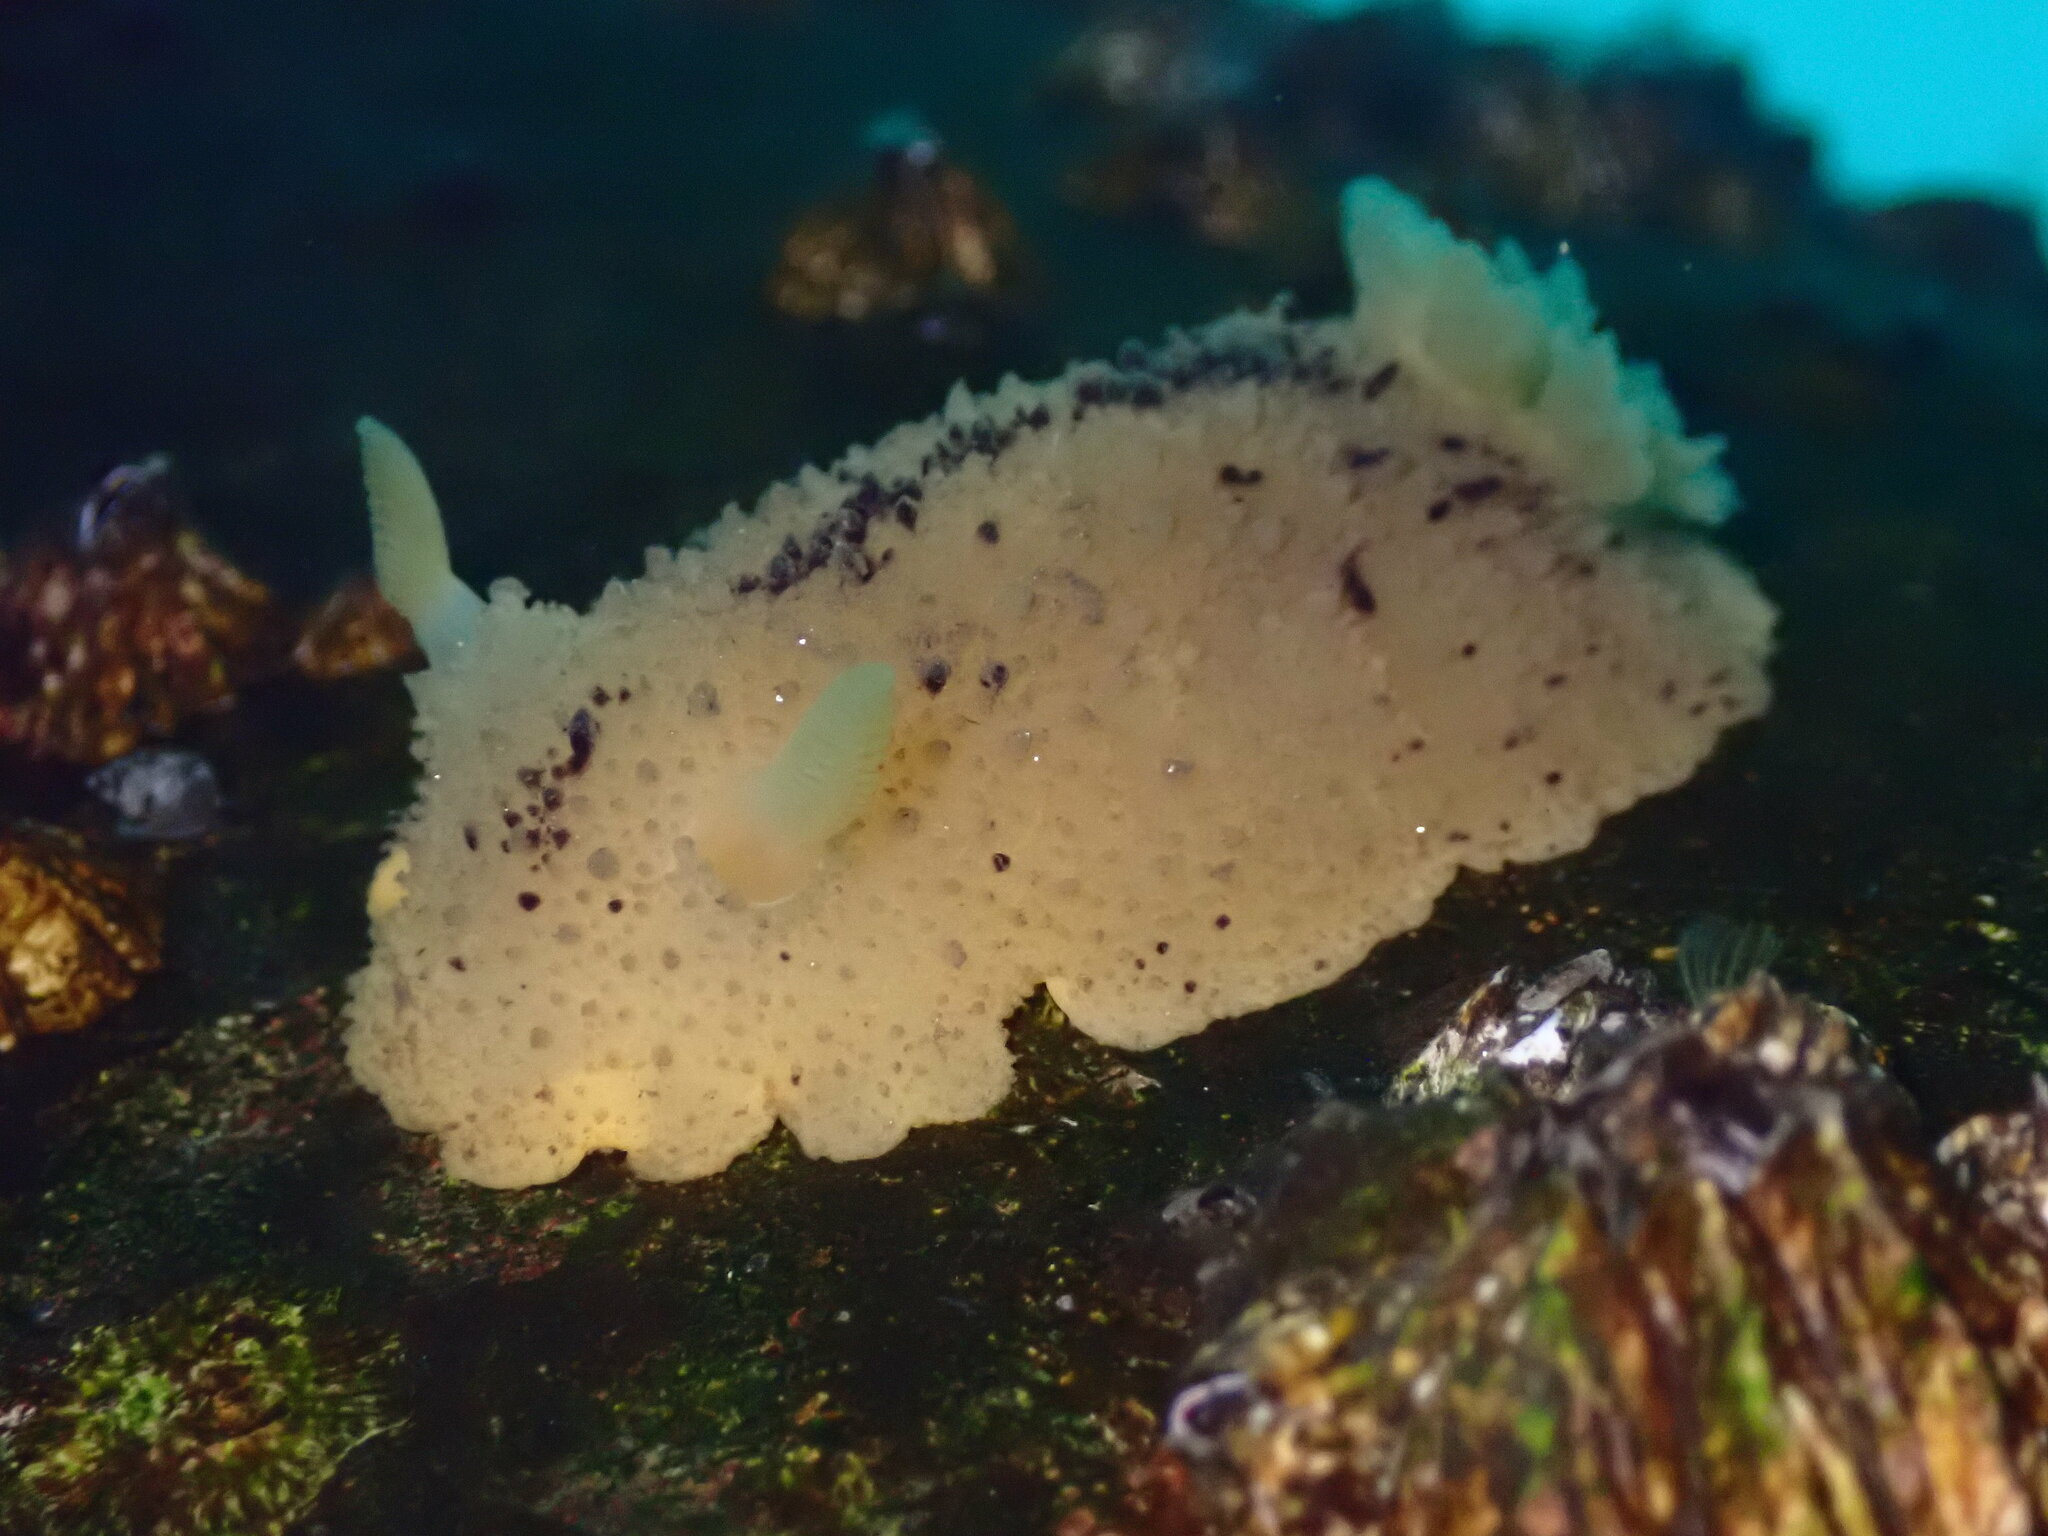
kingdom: Animalia
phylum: Mollusca
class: Gastropoda
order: Nudibranchia
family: Dorididae
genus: Doris
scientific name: Doris montereyensis
